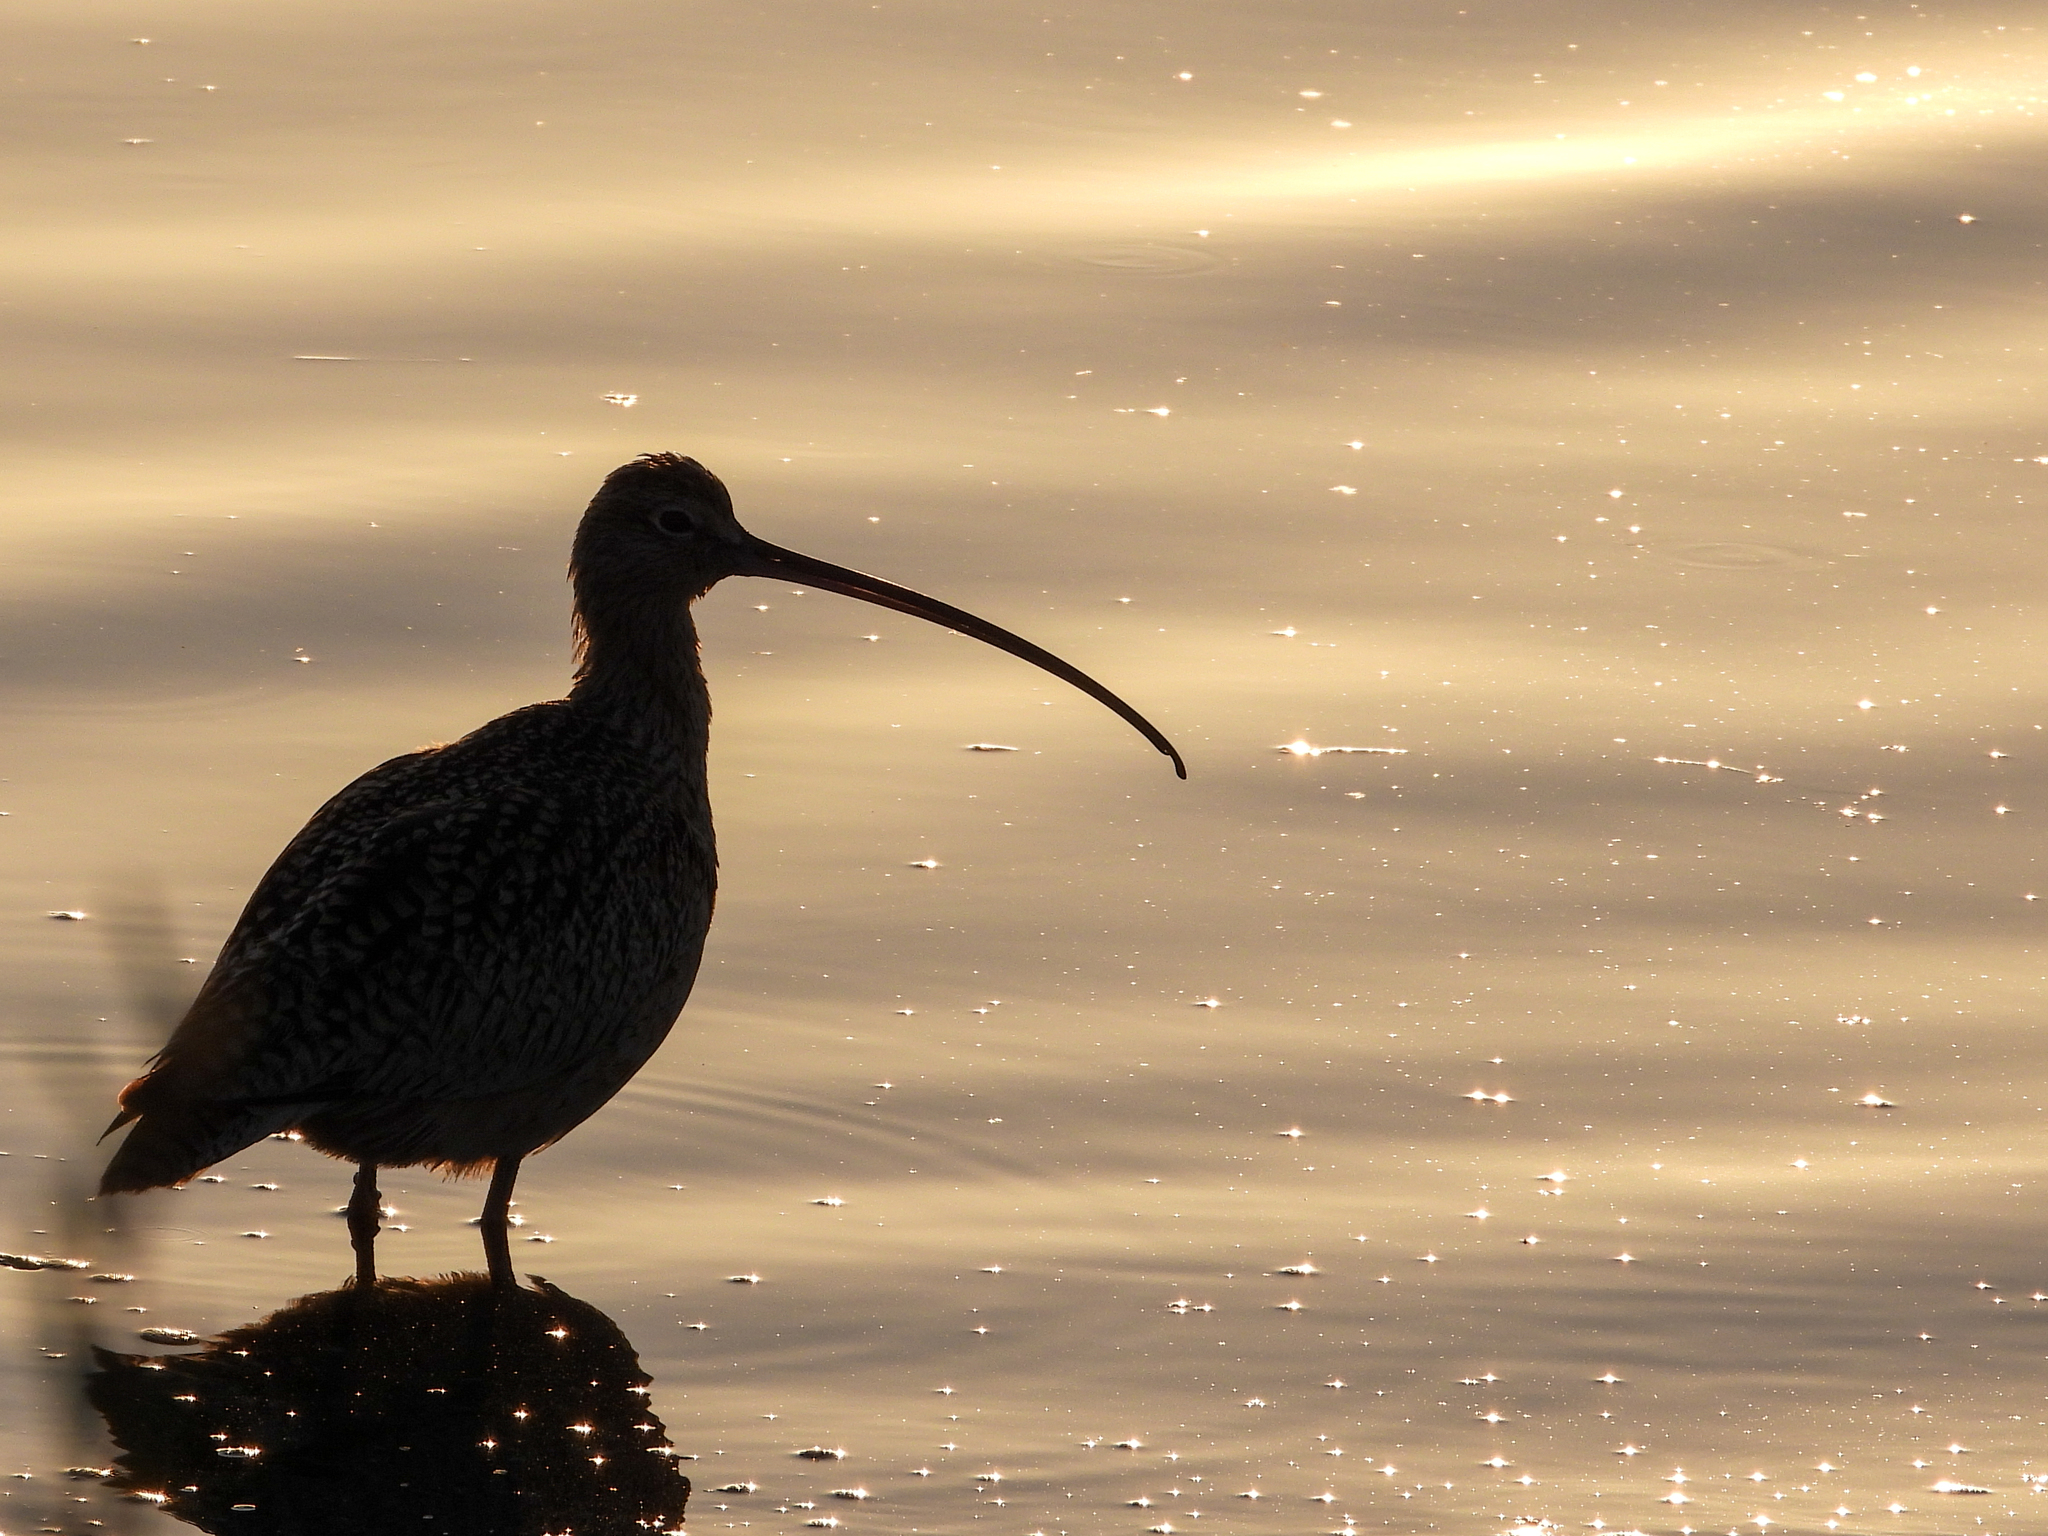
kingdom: Animalia
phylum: Chordata
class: Aves
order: Charadriiformes
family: Scolopacidae
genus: Numenius
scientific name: Numenius americanus
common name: Long-billed curlew
